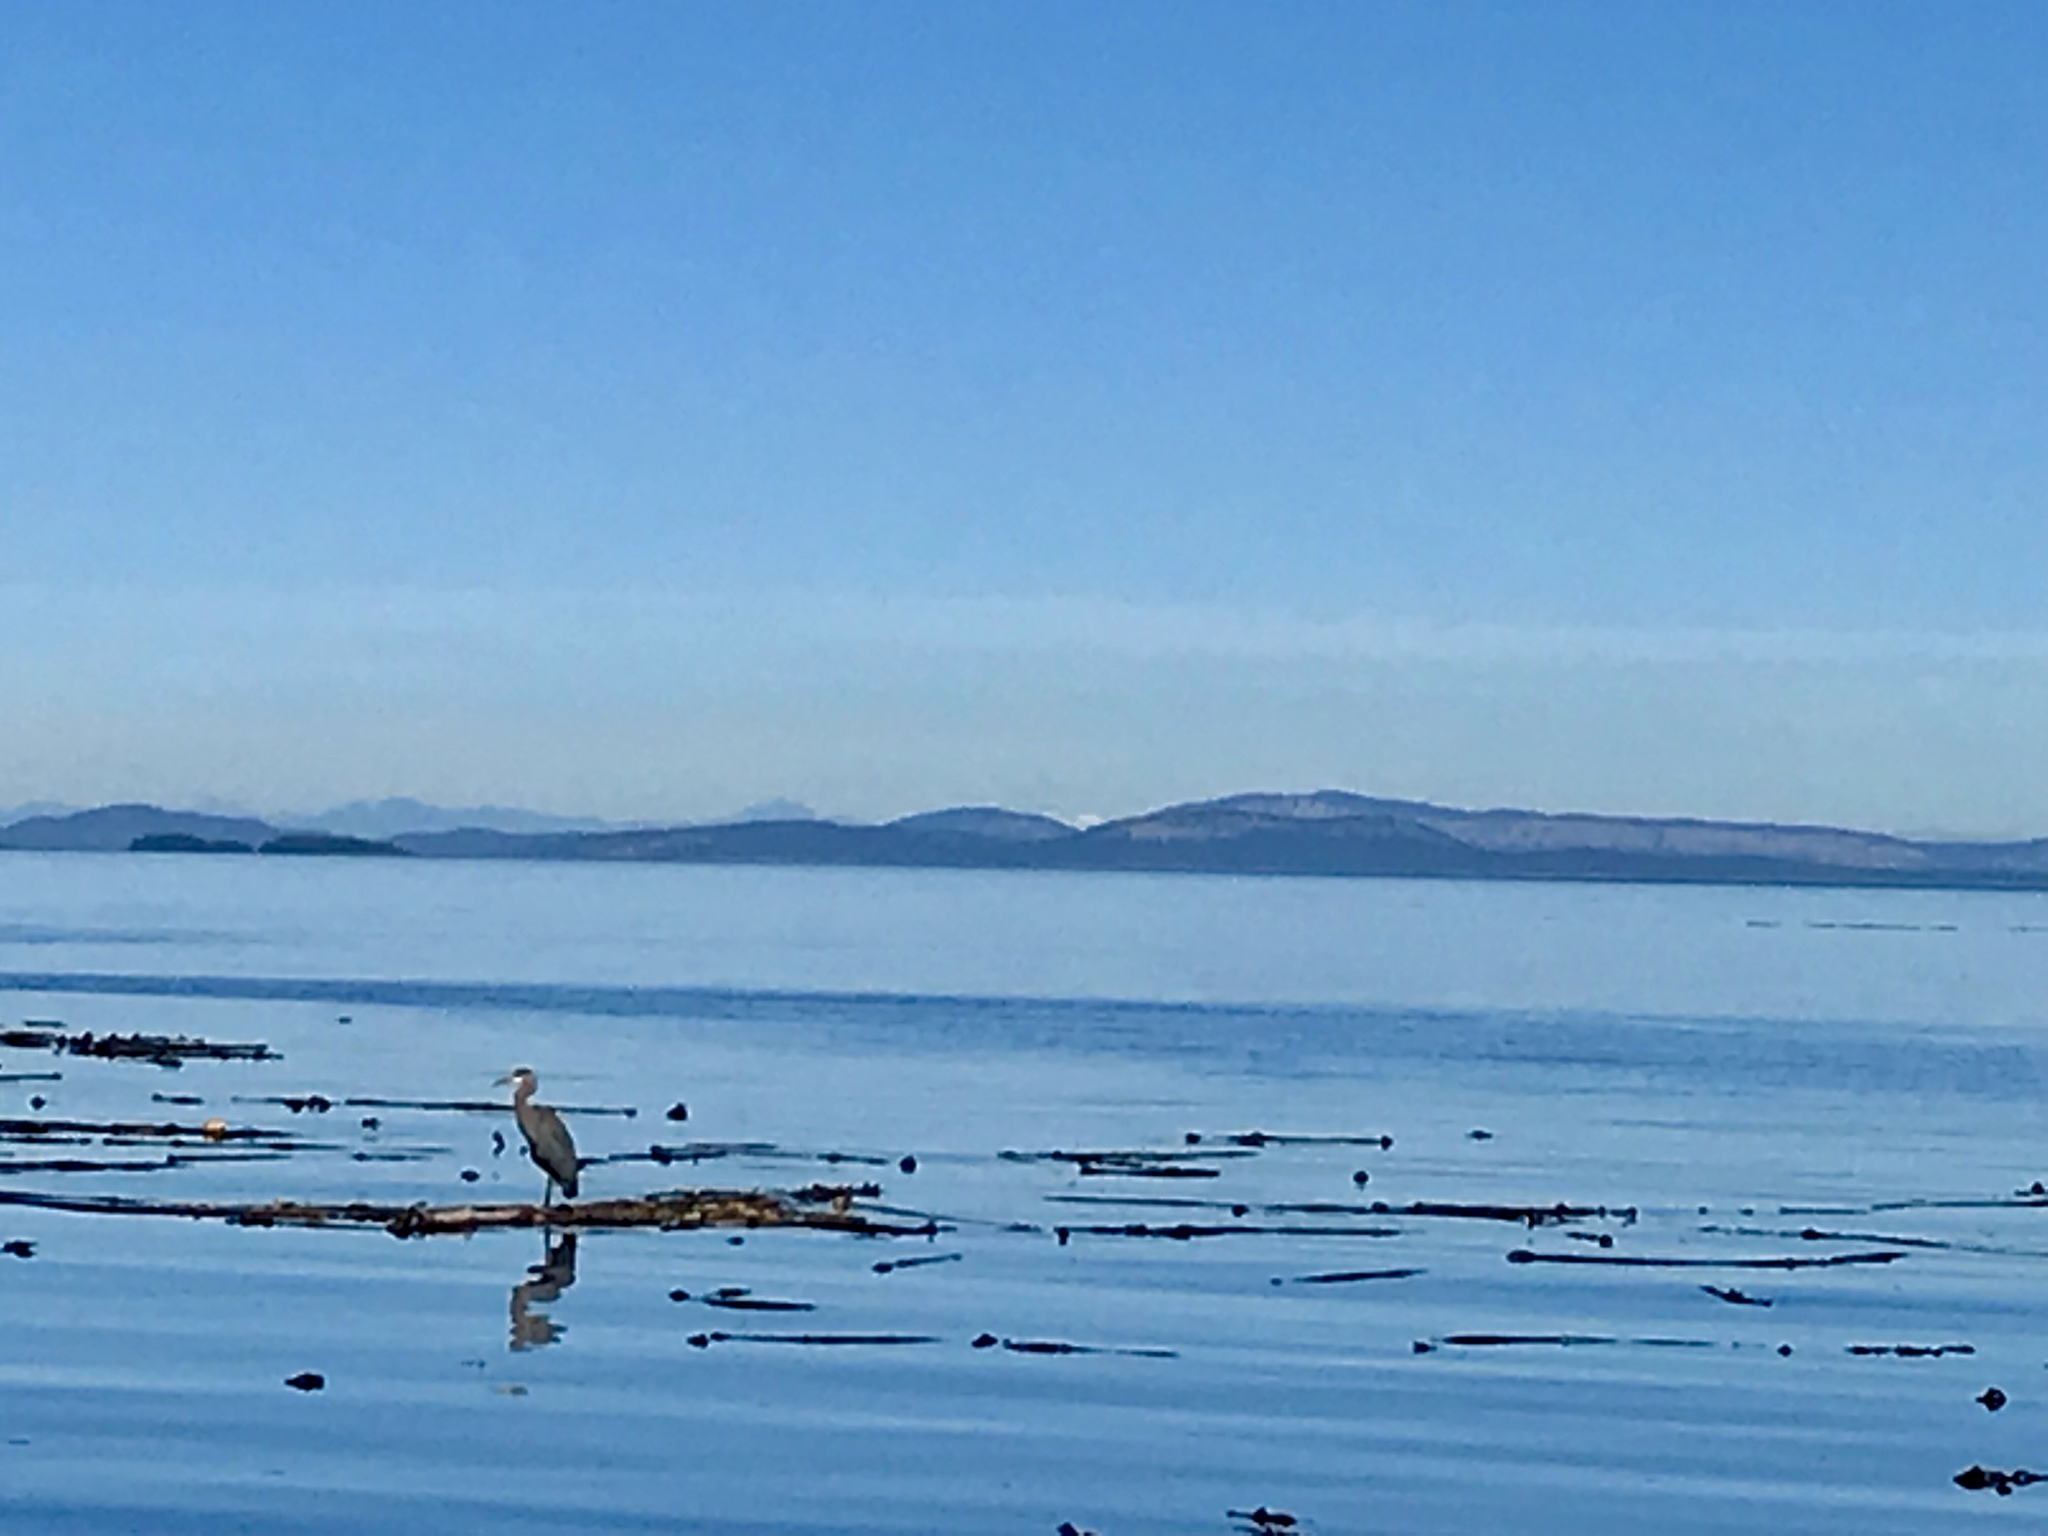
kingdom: Animalia
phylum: Chordata
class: Aves
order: Pelecaniformes
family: Ardeidae
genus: Ardea
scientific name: Ardea herodias
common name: Great blue heron
